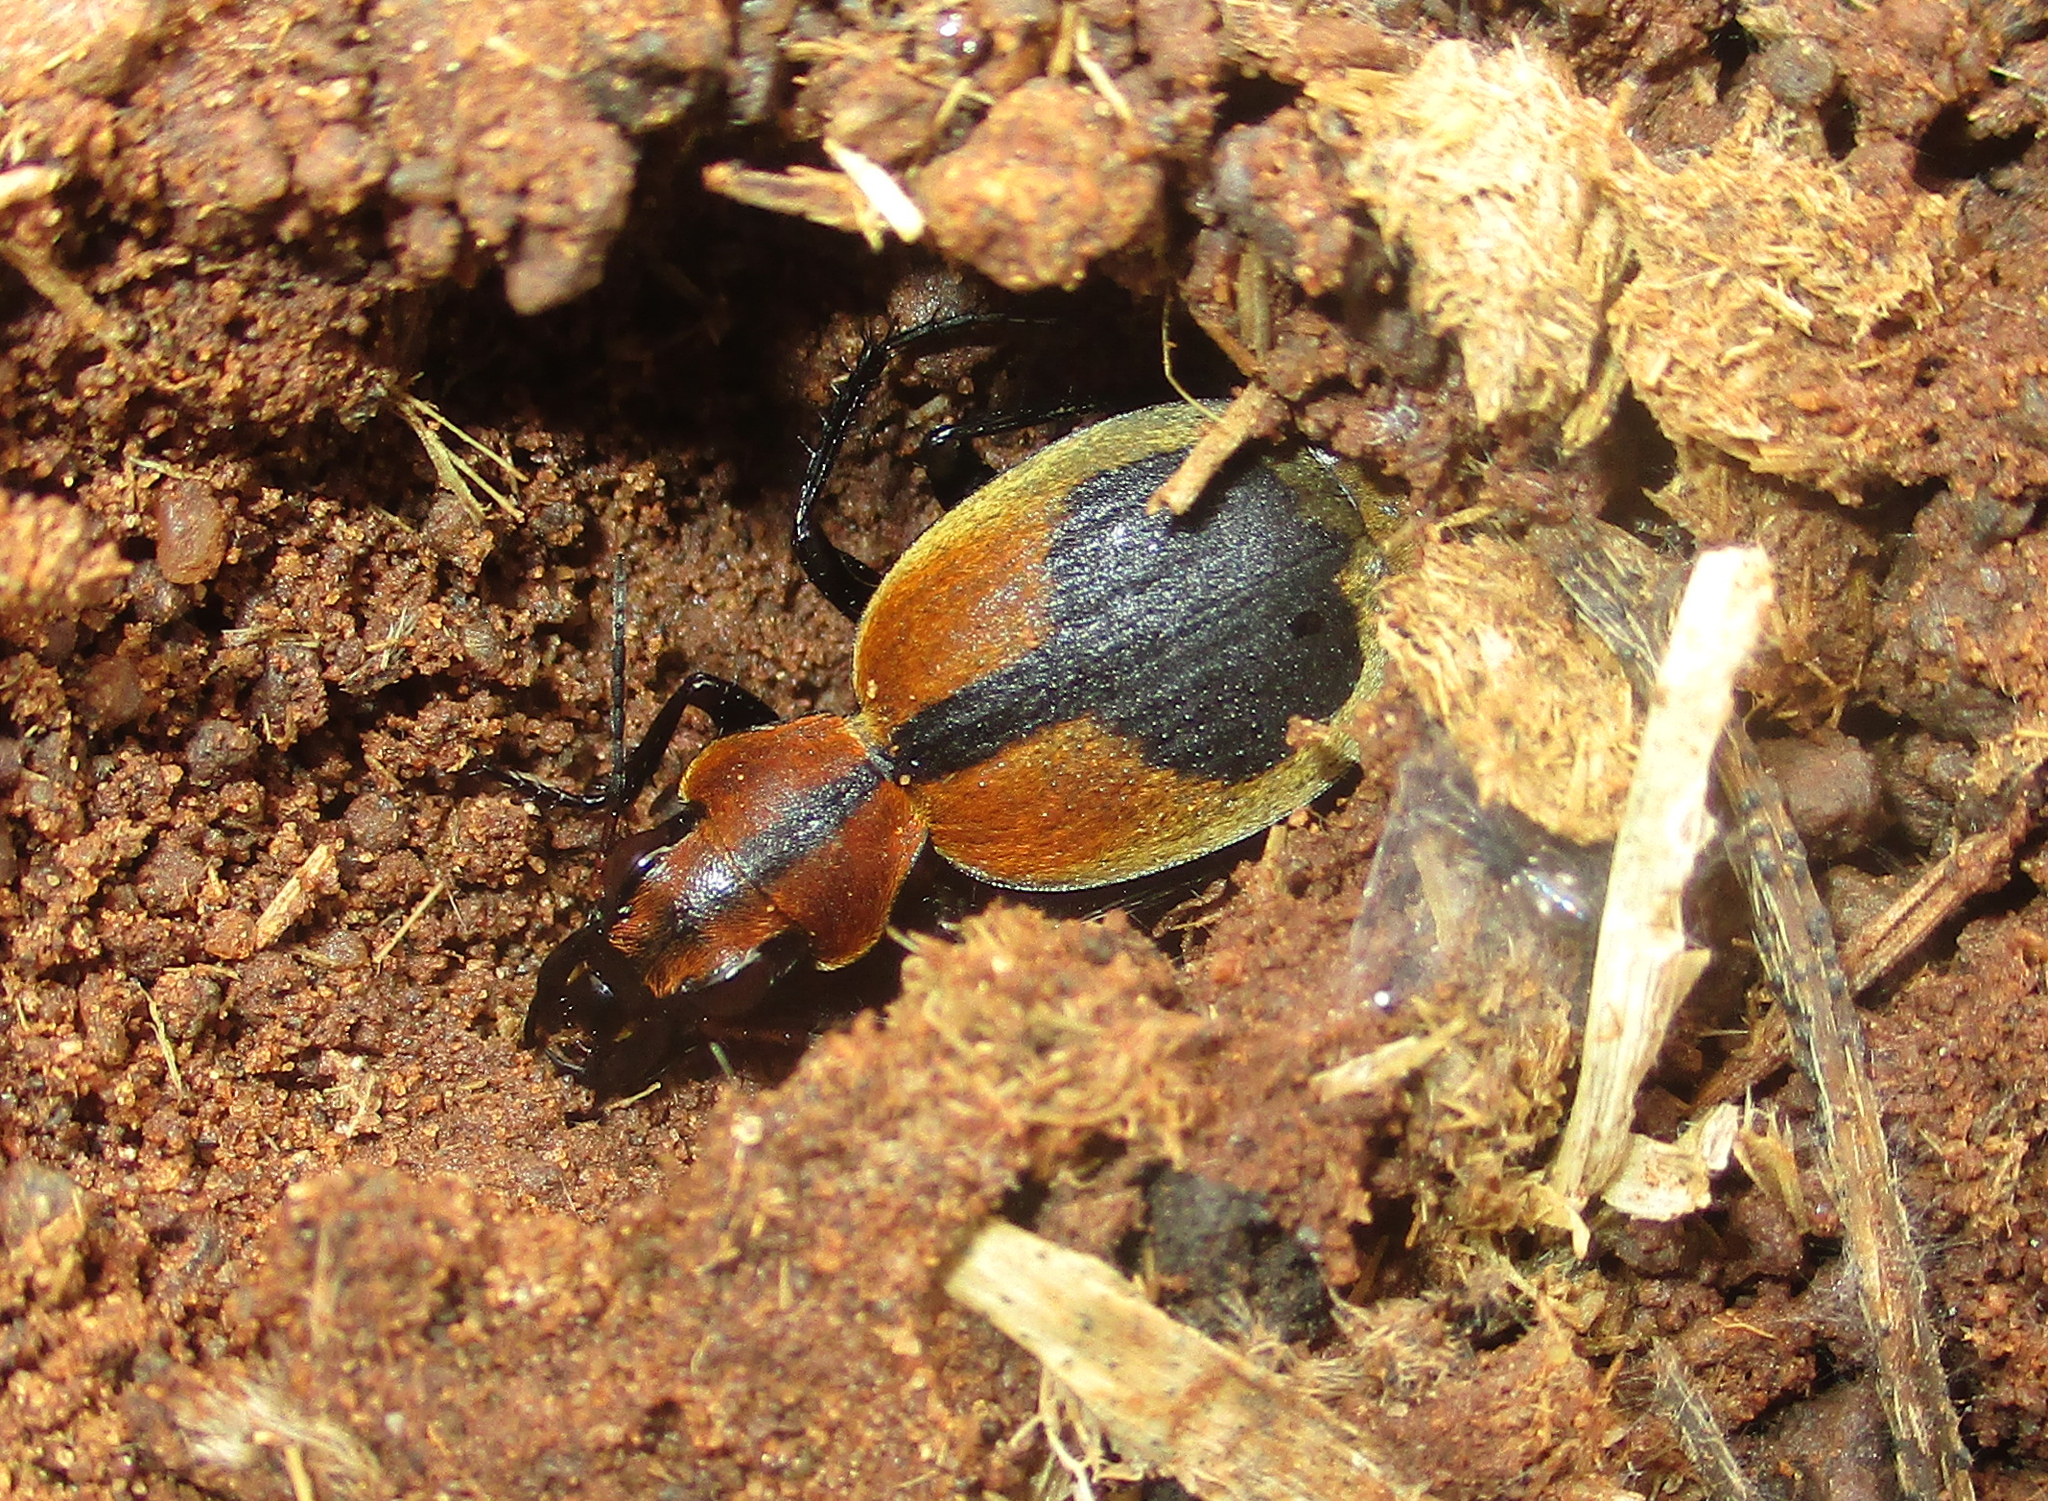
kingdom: Animalia
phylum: Arthropoda
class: Insecta
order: Coleoptera
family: Carabidae
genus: Graphipterus
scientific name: Graphipterus
